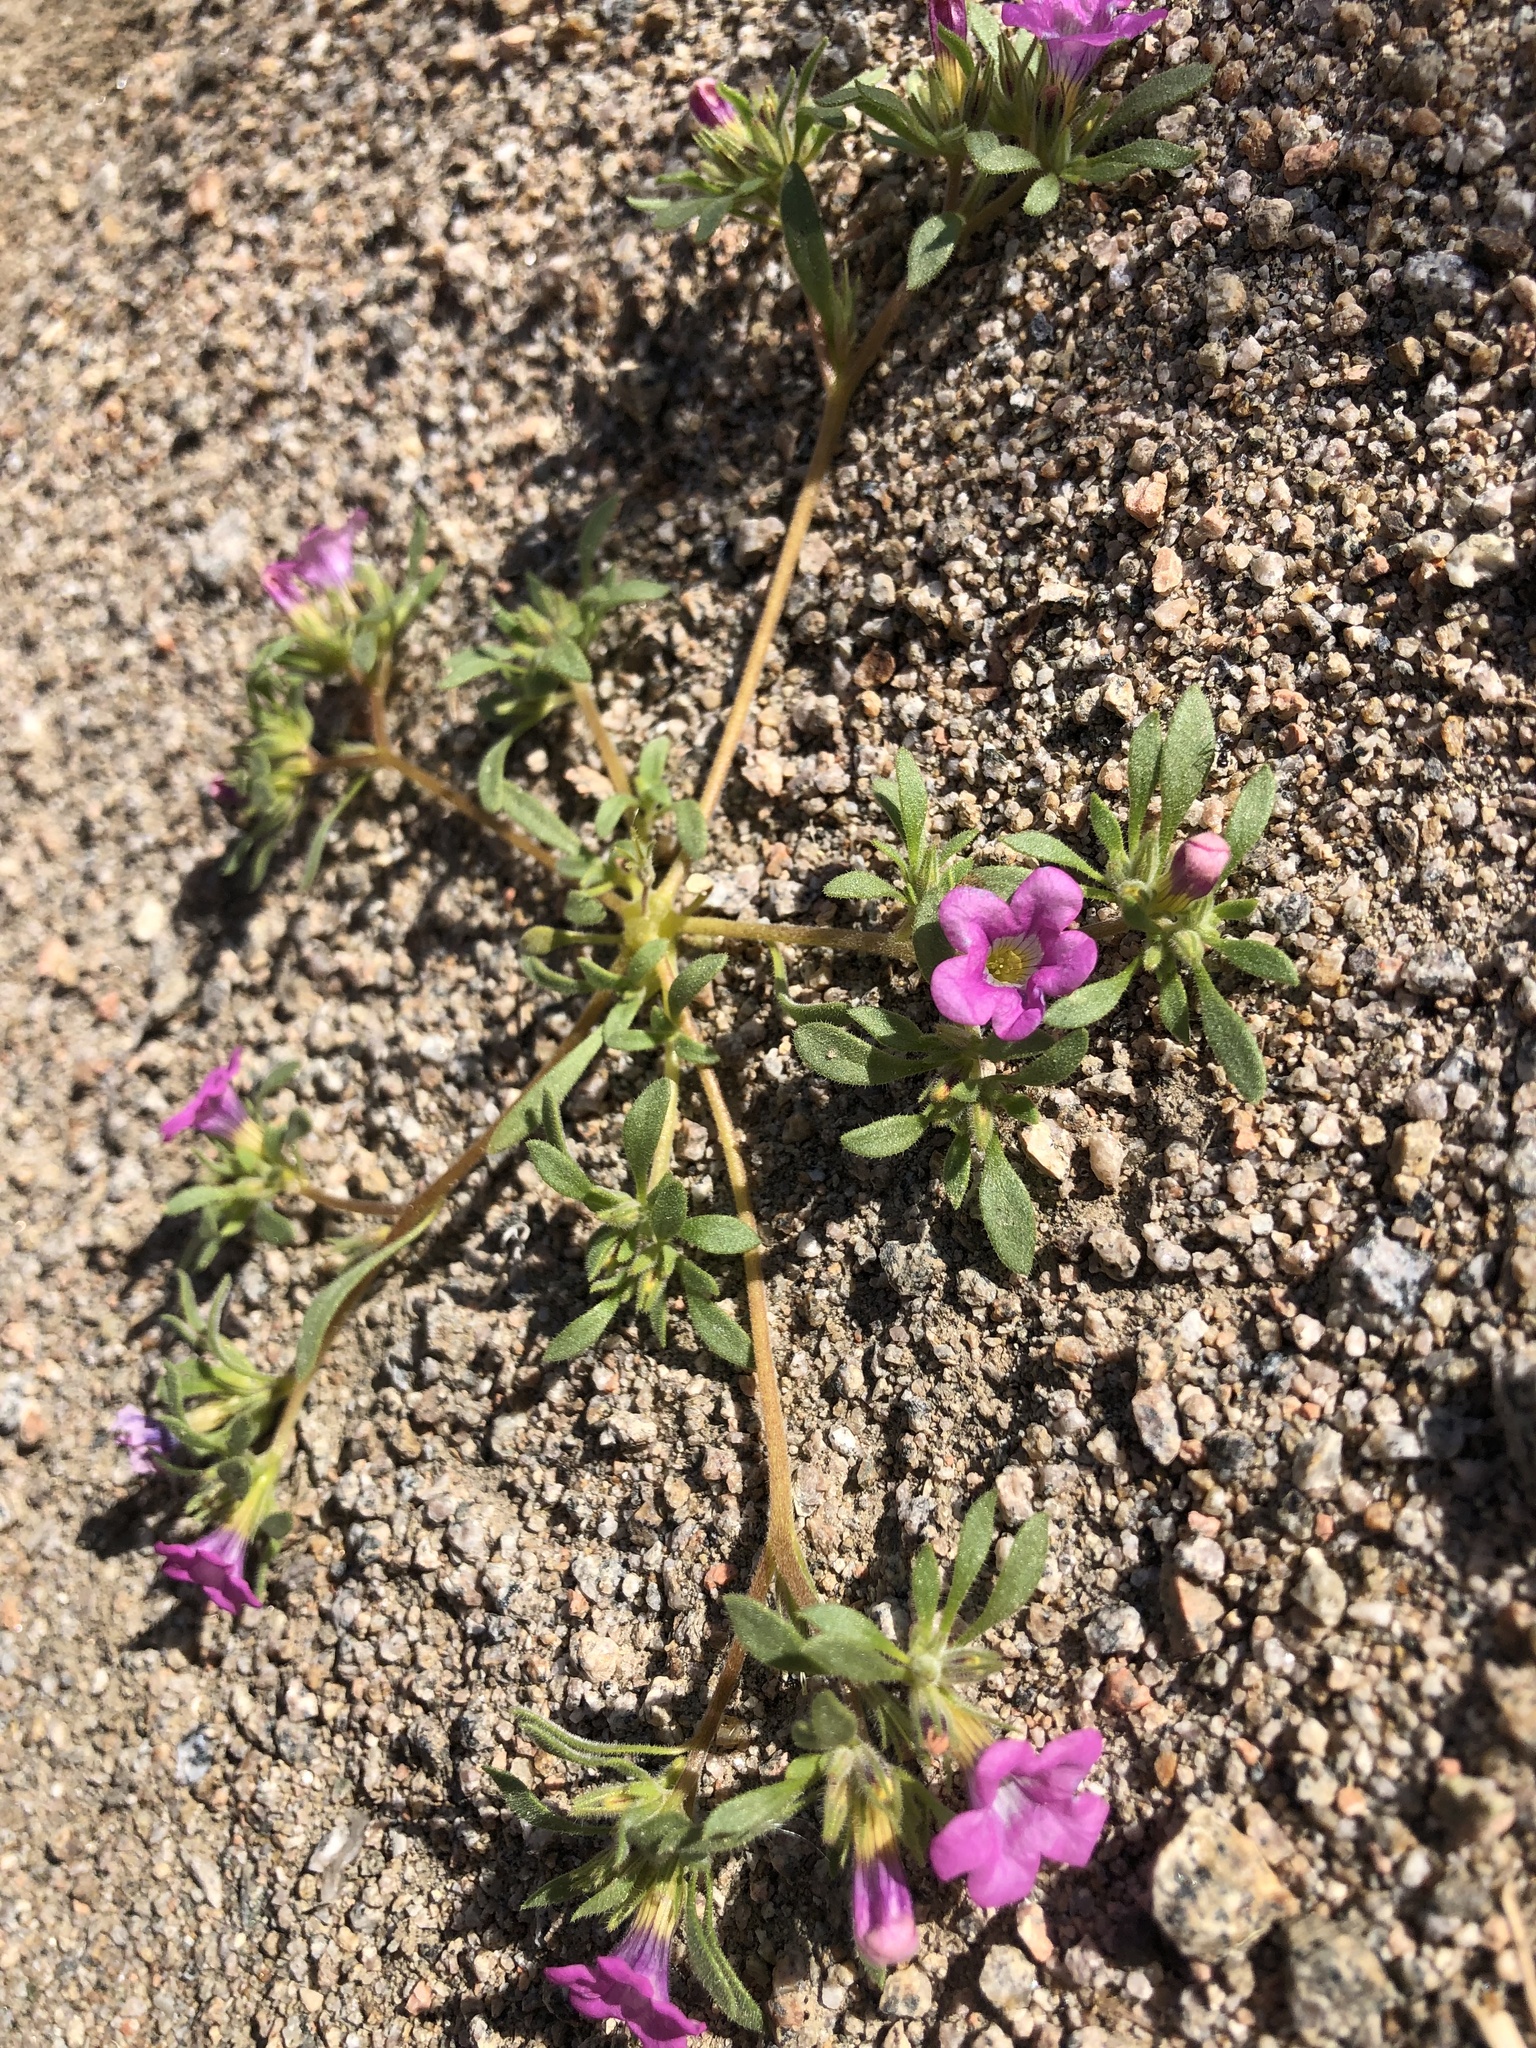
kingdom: Plantae
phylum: Tracheophyta
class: Magnoliopsida
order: Boraginales
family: Namaceae
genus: Nama
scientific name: Nama demissa
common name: Leafy nama
